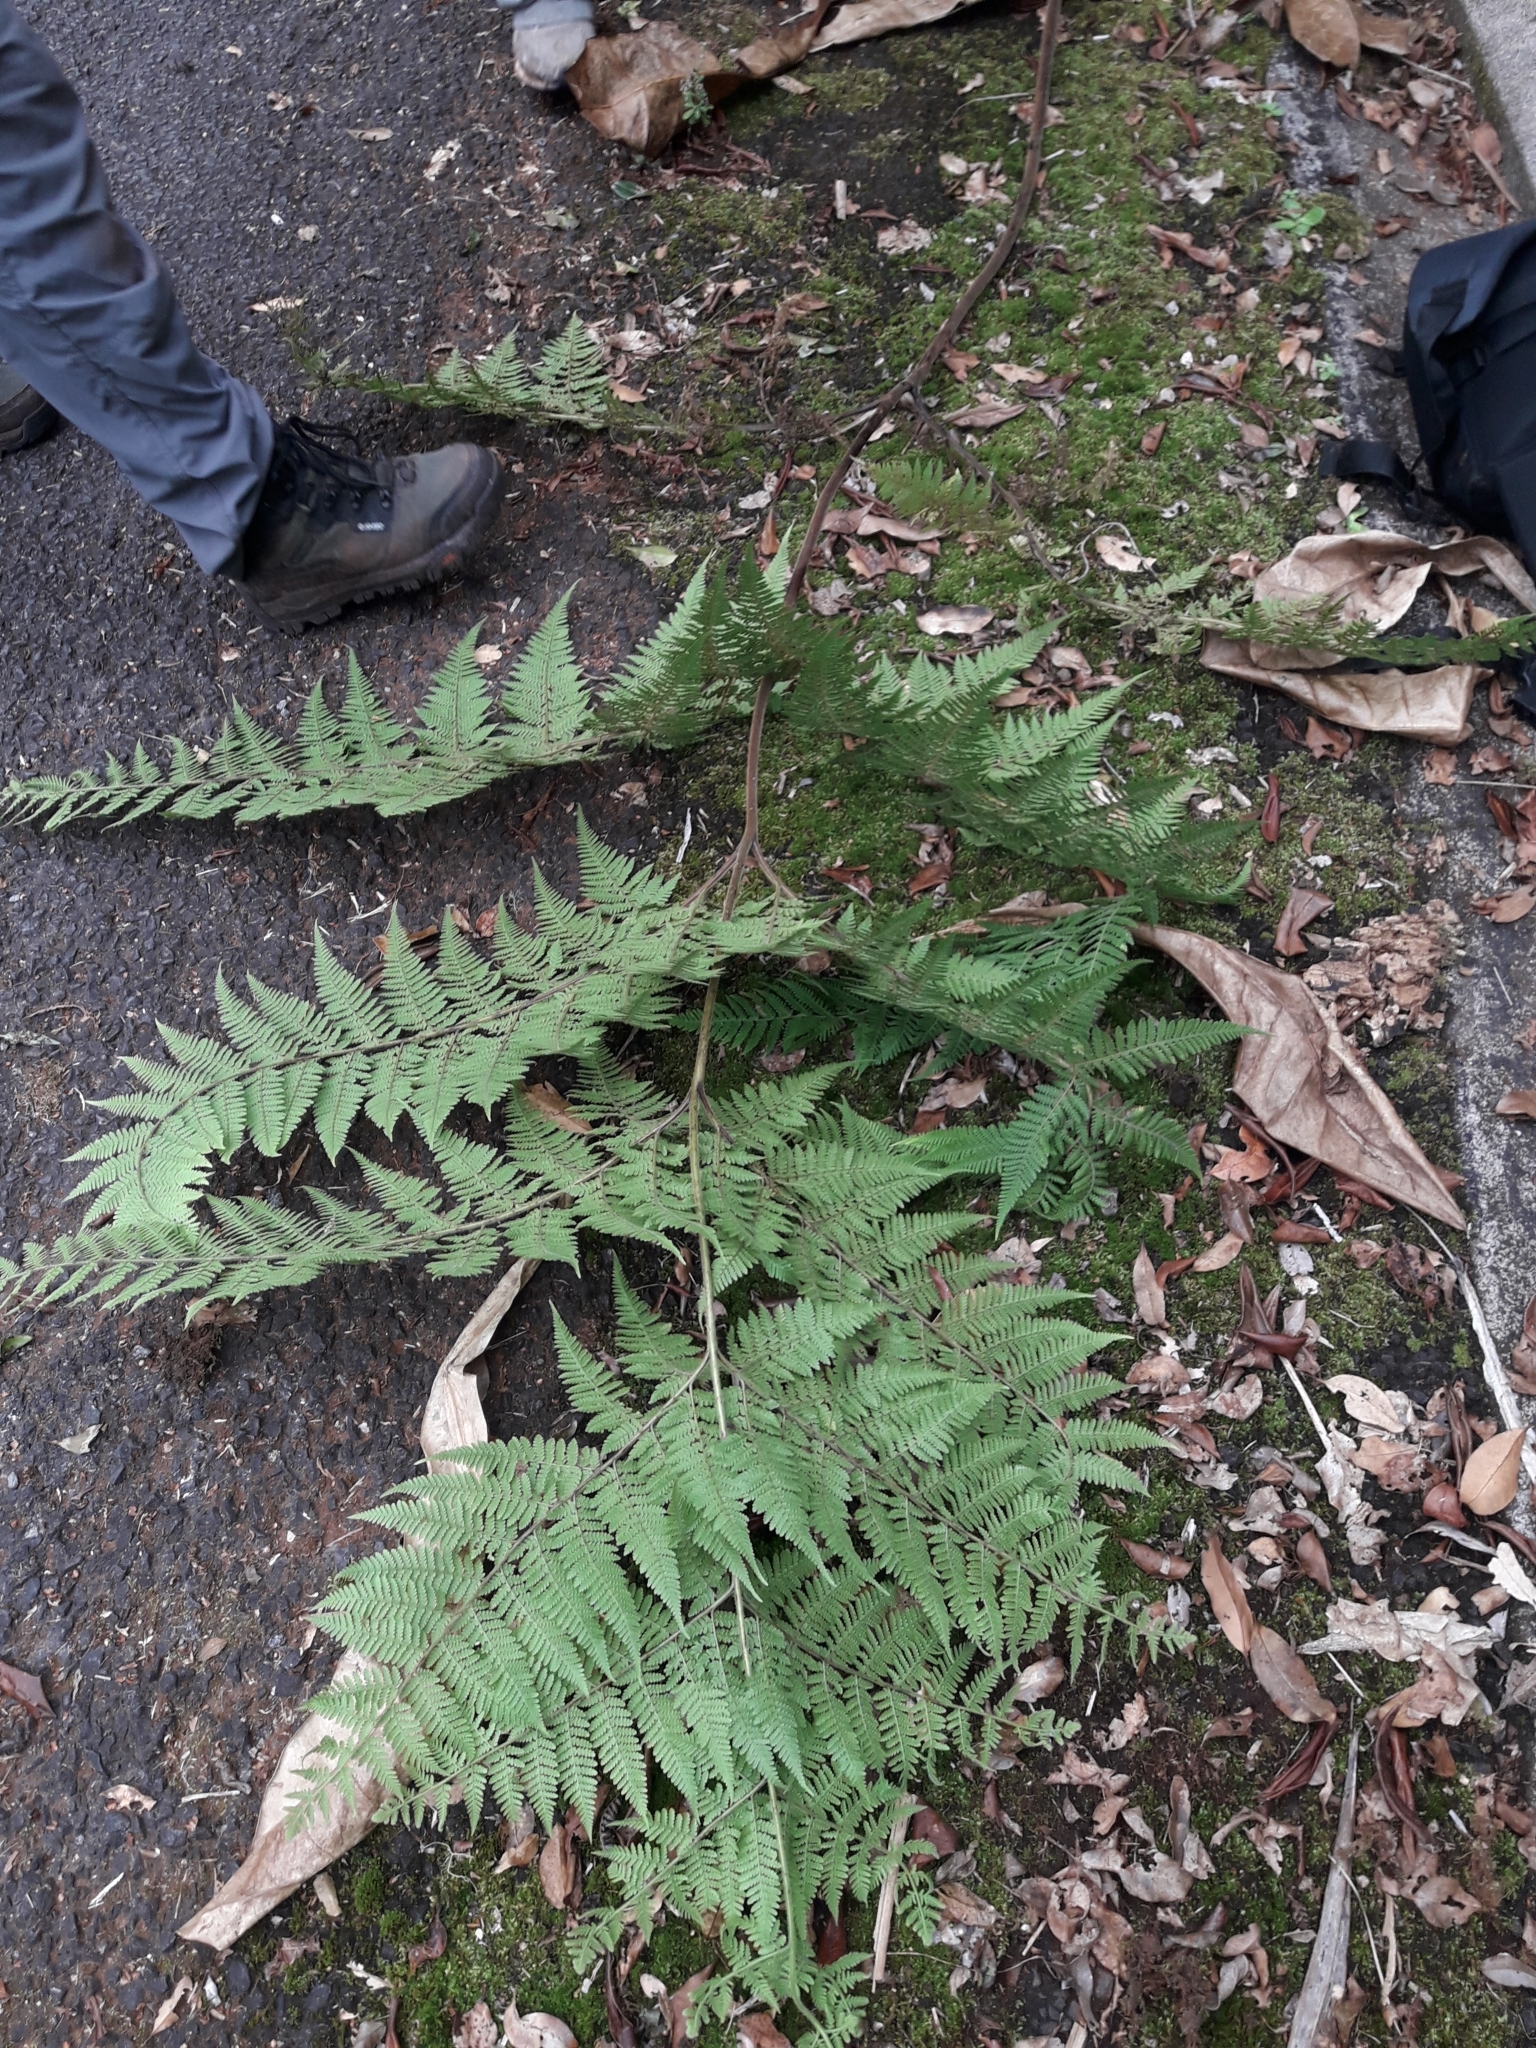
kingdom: Plantae
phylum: Tracheophyta
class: Polypodiopsida
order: Polypodiales
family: Dennstaedtiaceae
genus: Hypolepis
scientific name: Hypolepis dicksonioides
